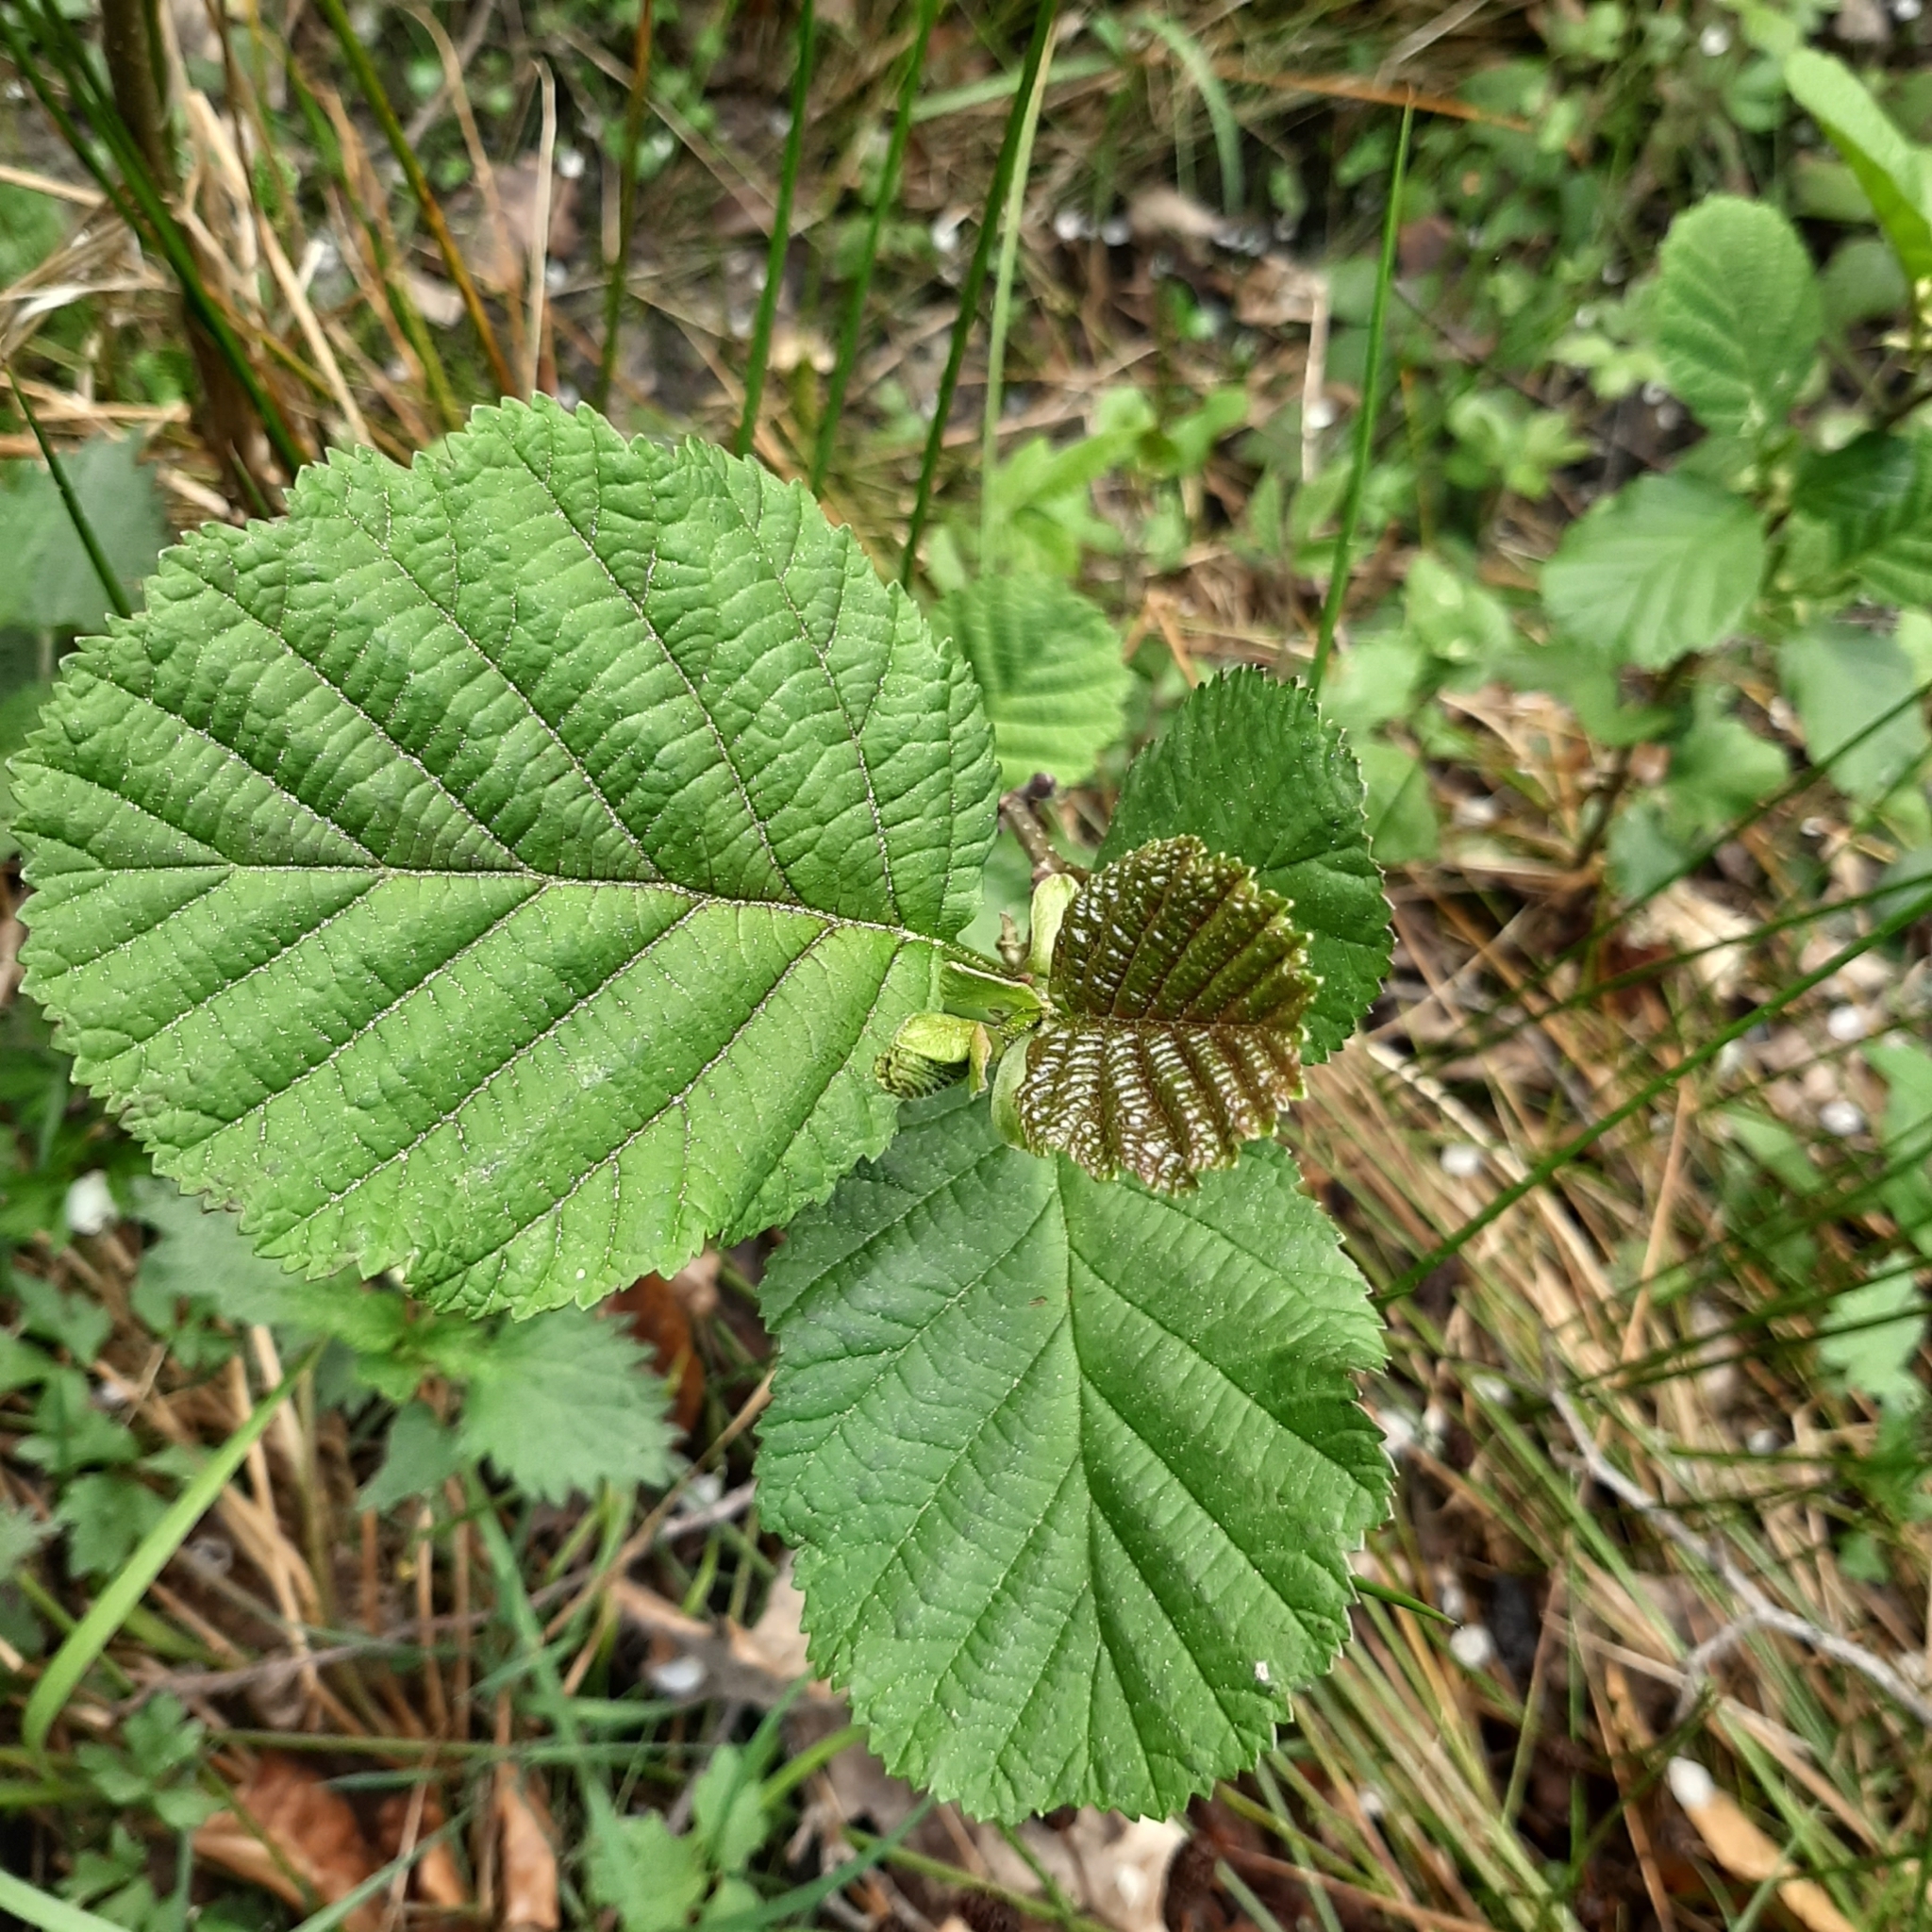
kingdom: Plantae
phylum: Tracheophyta
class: Magnoliopsida
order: Fagales
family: Betulaceae
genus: Alnus
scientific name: Alnus glutinosa
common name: Black alder
